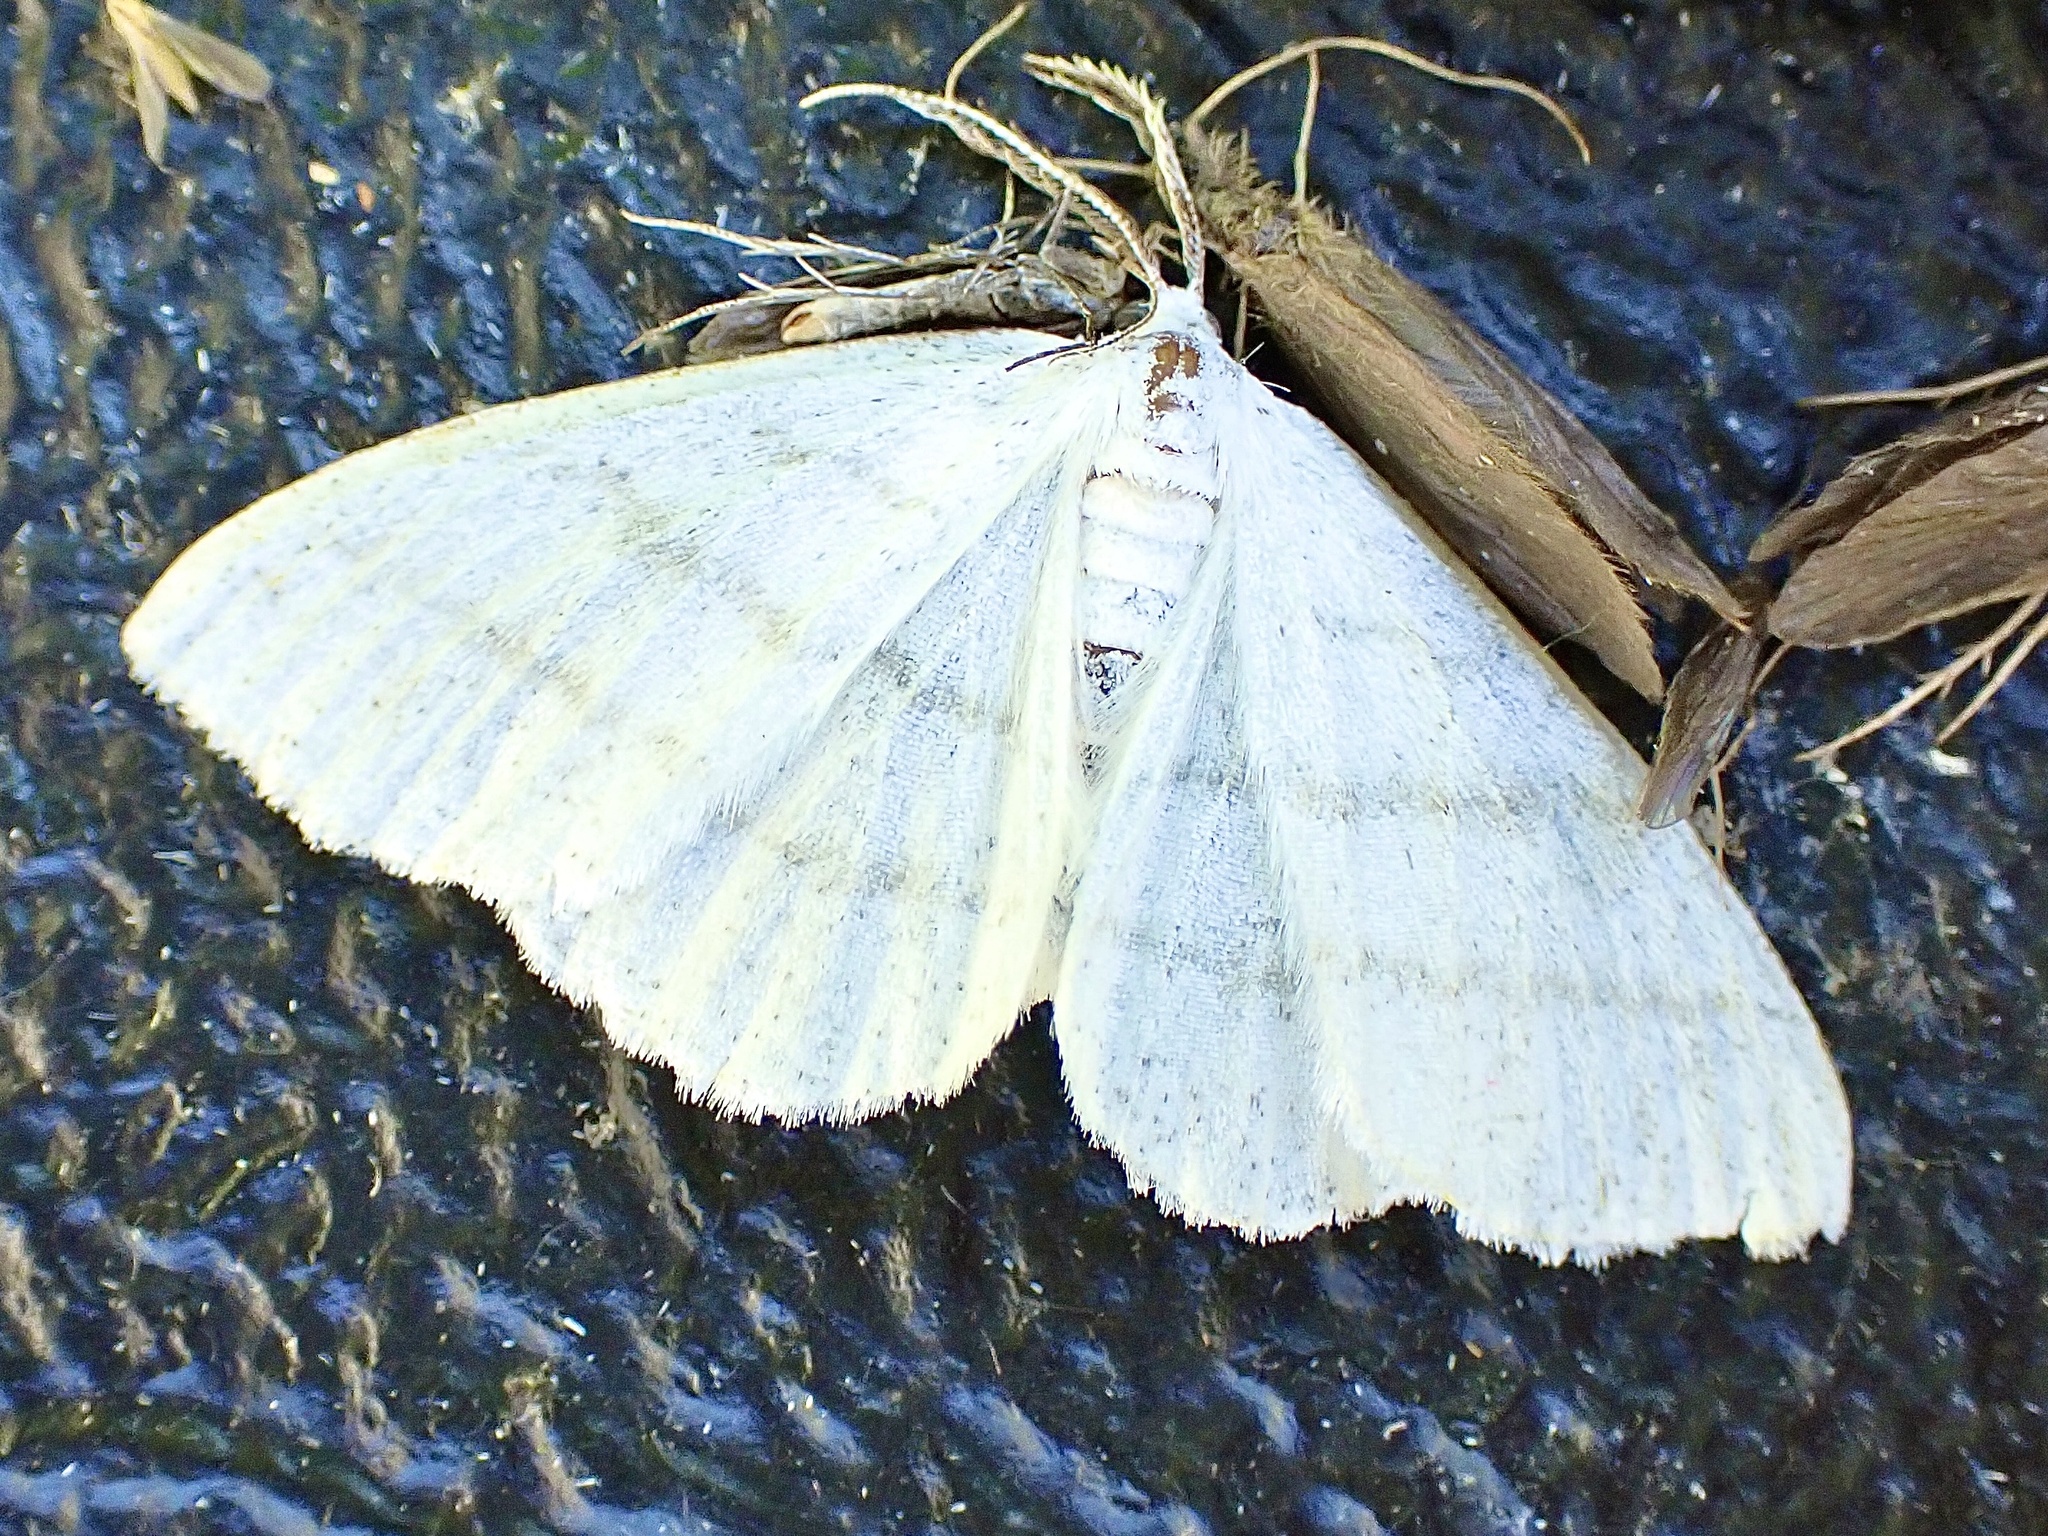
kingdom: Animalia
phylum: Arthropoda
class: Insecta
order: Lepidoptera
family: Geometridae
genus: Cabera
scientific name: Cabera pusaria
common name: Common white wave
